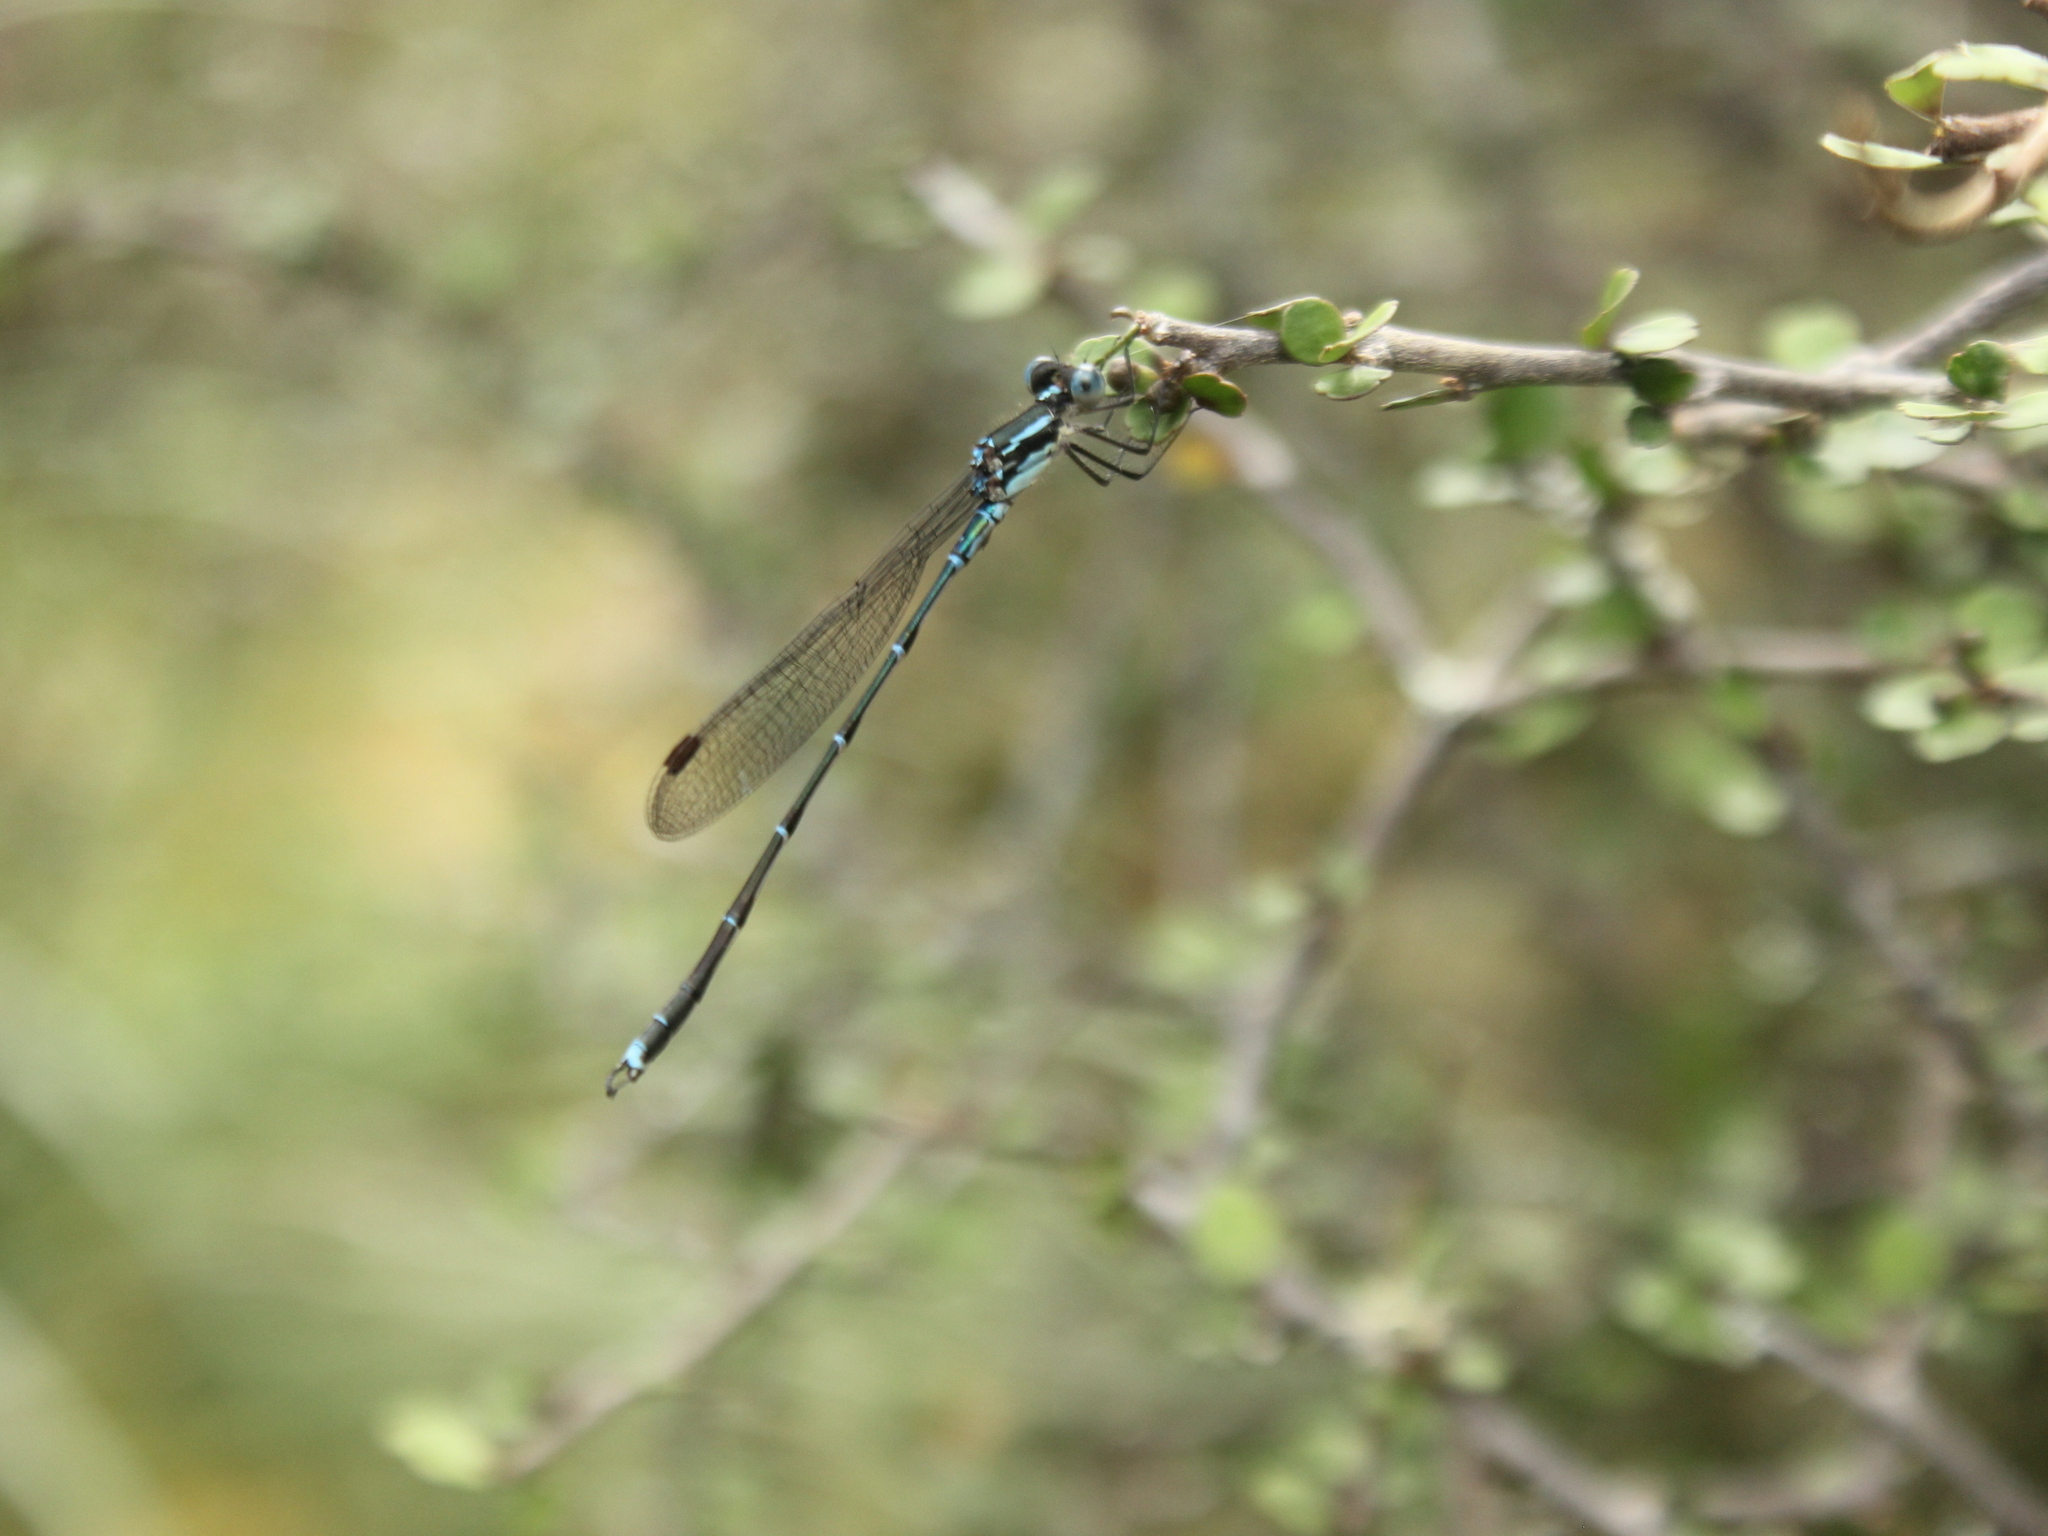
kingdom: Animalia
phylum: Arthropoda
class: Insecta
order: Odonata
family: Lestidae
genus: Austrolestes
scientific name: Austrolestes colensonis
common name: Blue damselfly
